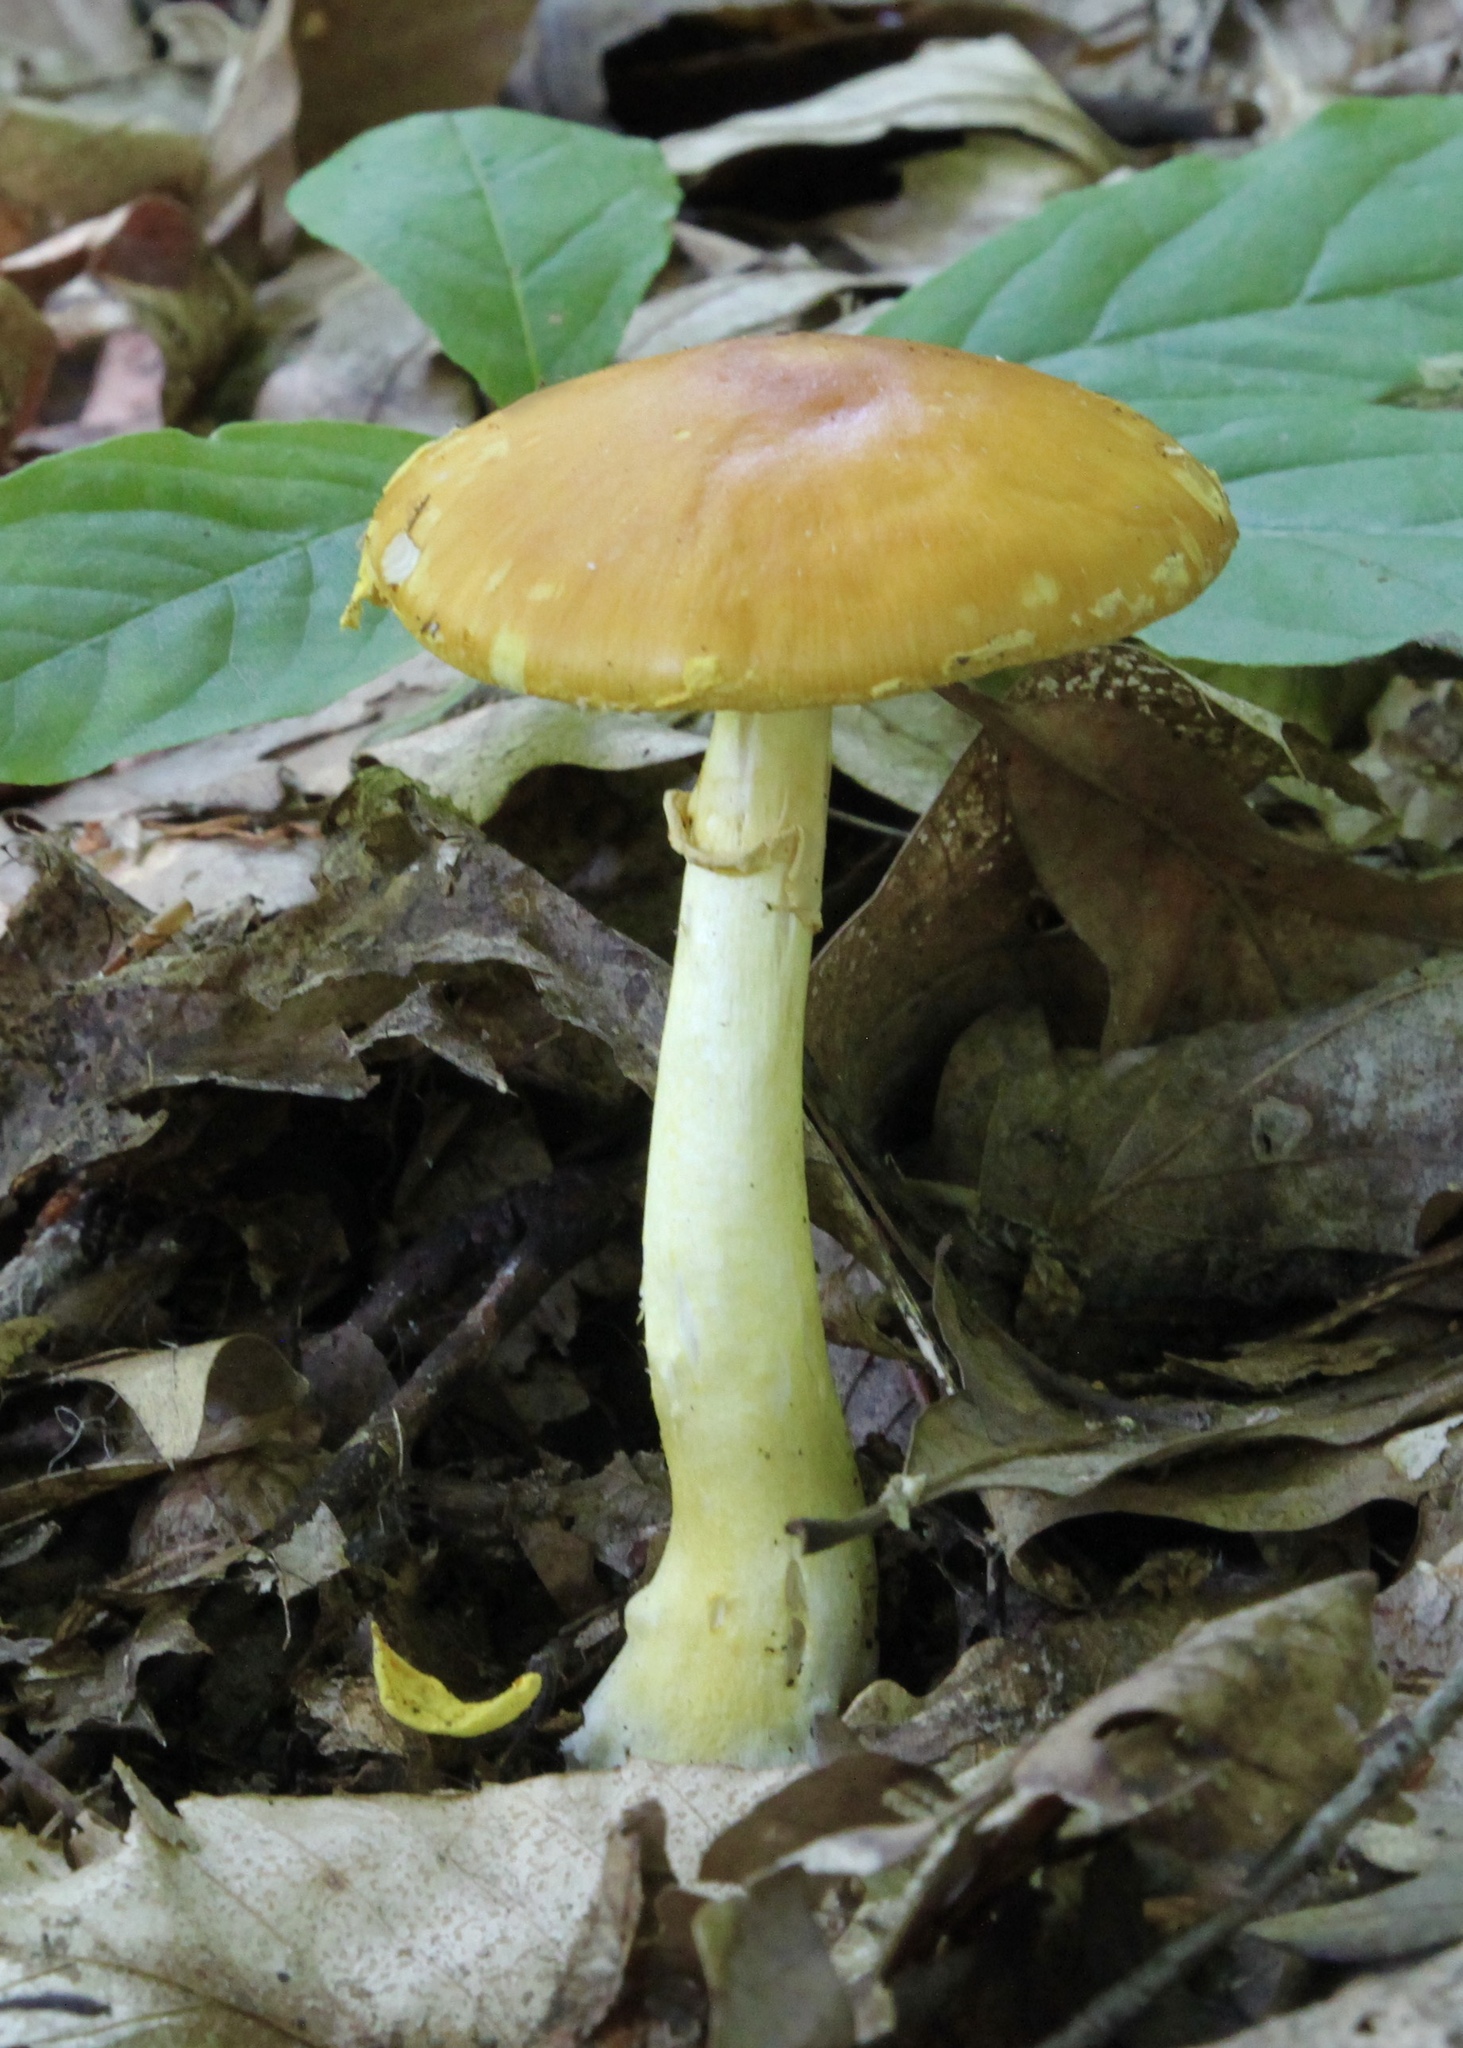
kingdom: Fungi
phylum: Basidiomycota
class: Agaricomycetes
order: Agaricales
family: Amanitaceae
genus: Amanita
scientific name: Amanita flavoconia
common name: Yellow patches
